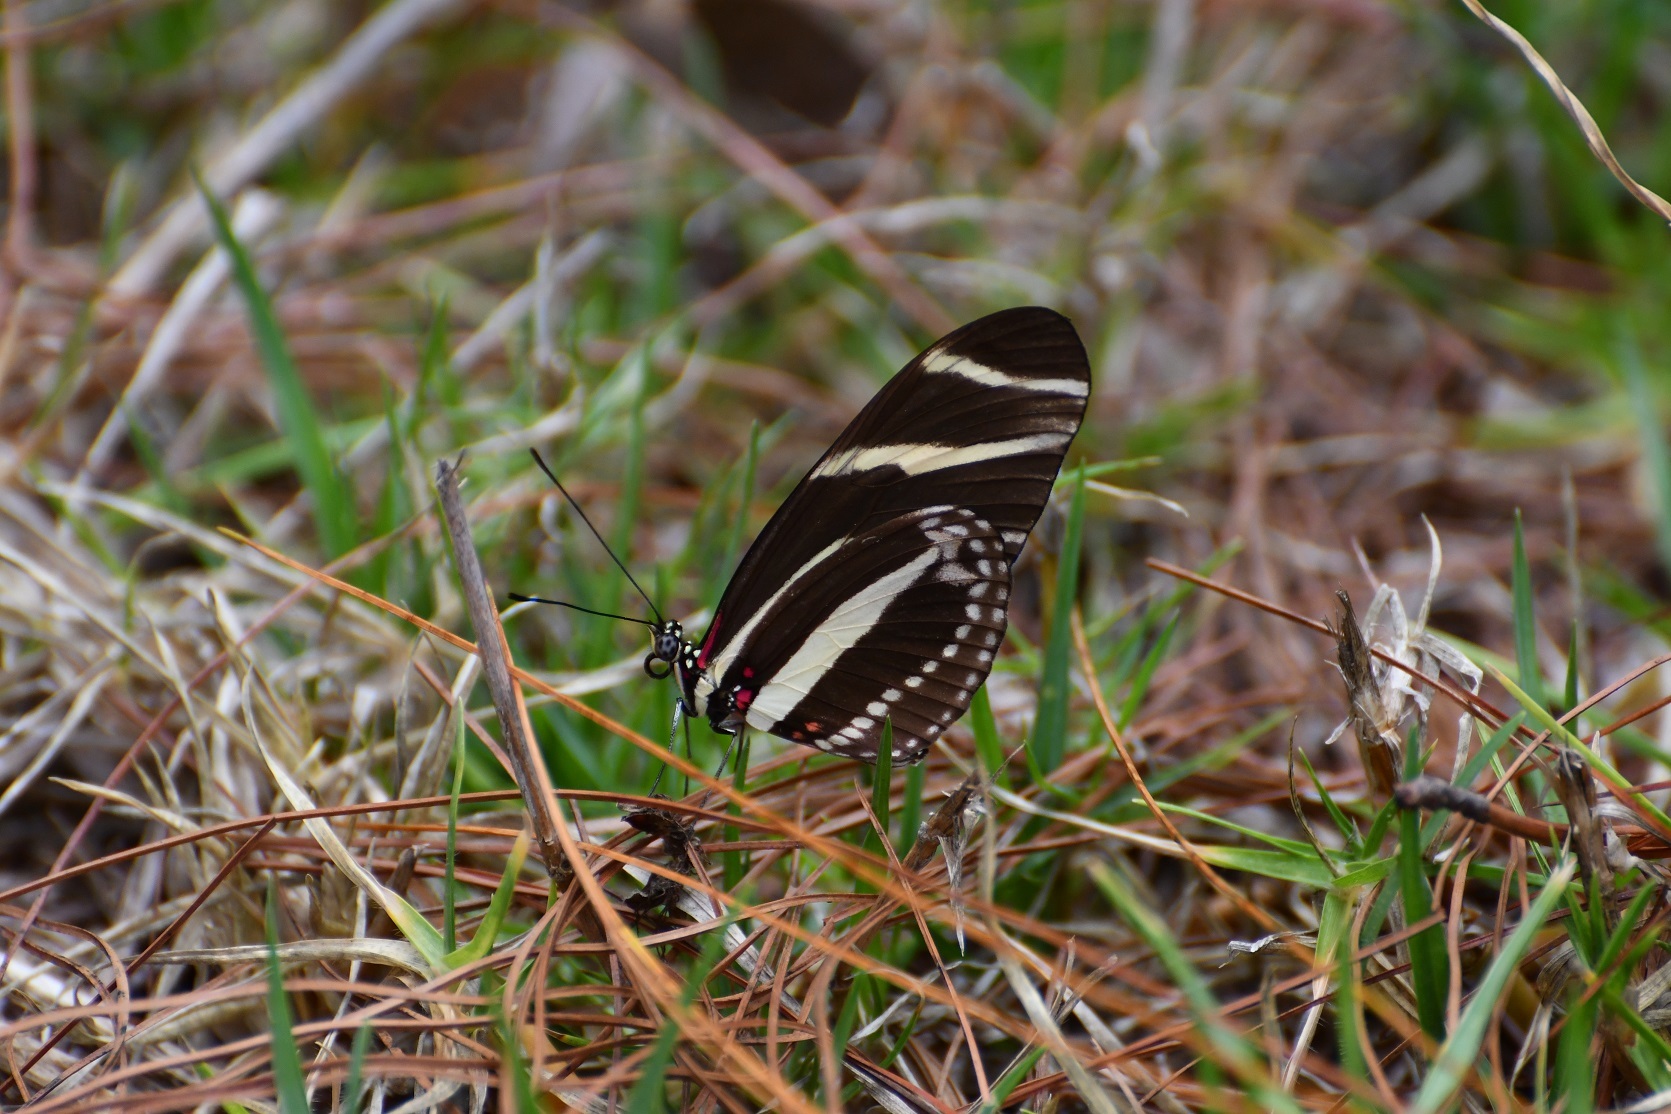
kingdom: Animalia
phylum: Arthropoda
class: Insecta
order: Lepidoptera
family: Nymphalidae
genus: Heliconius
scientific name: Heliconius charithonia
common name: Zebra long wing
